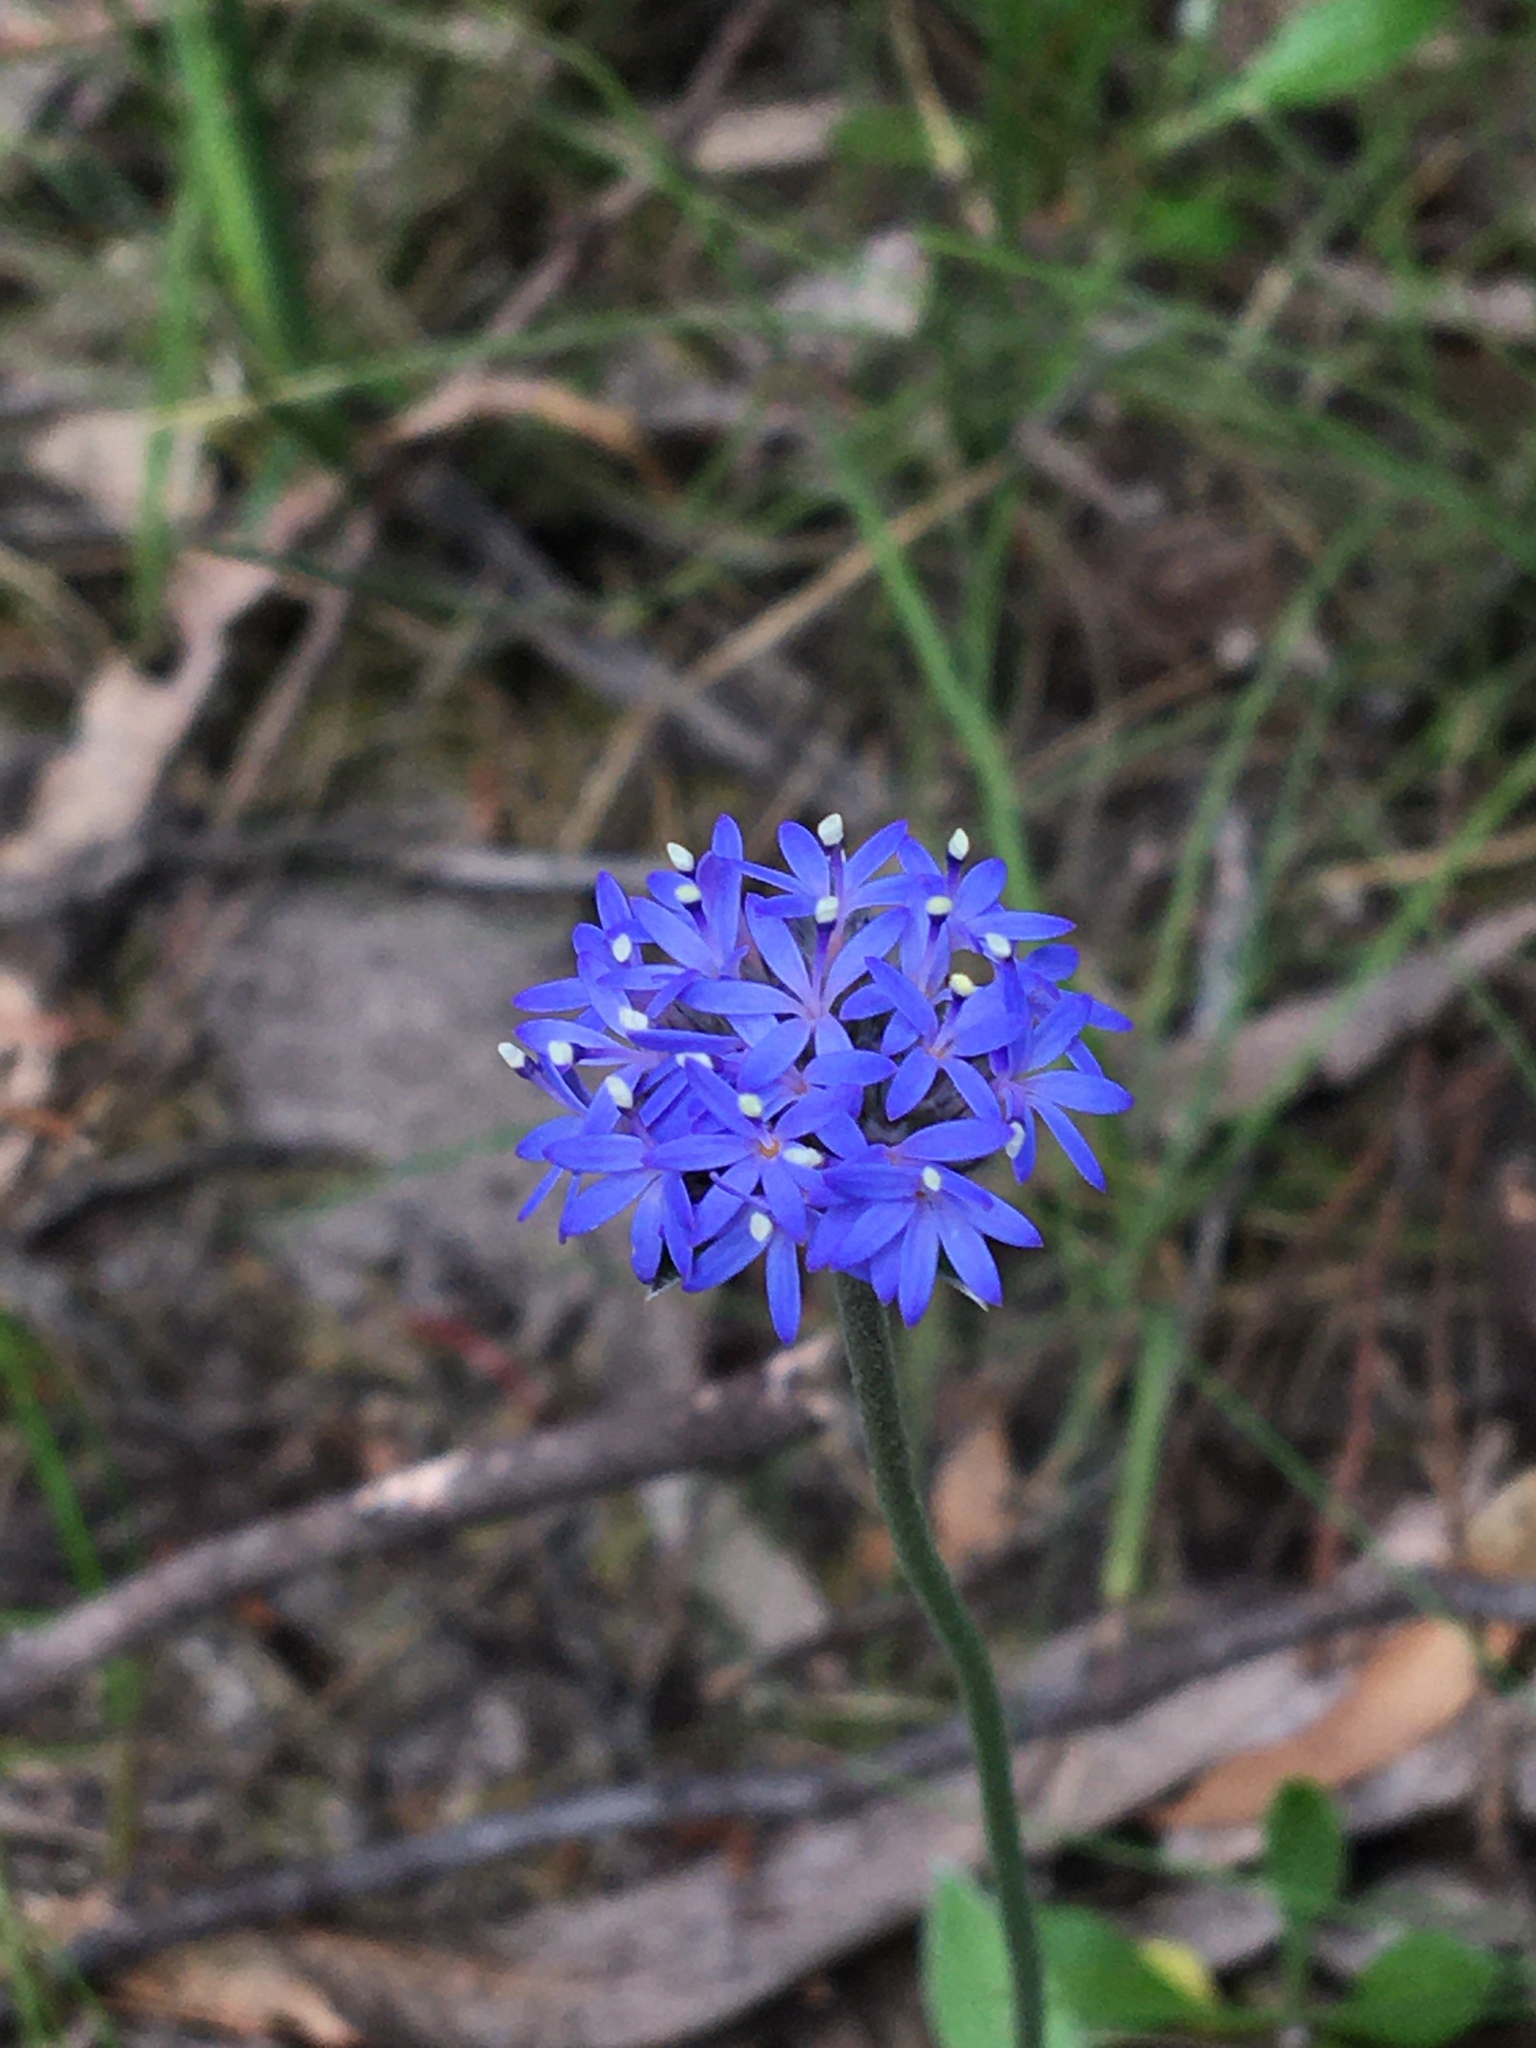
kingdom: Plantae
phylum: Tracheophyta
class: Magnoliopsida
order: Asterales
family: Goodeniaceae
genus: Brunonia
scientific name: Brunonia australis
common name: Blue pincushion
